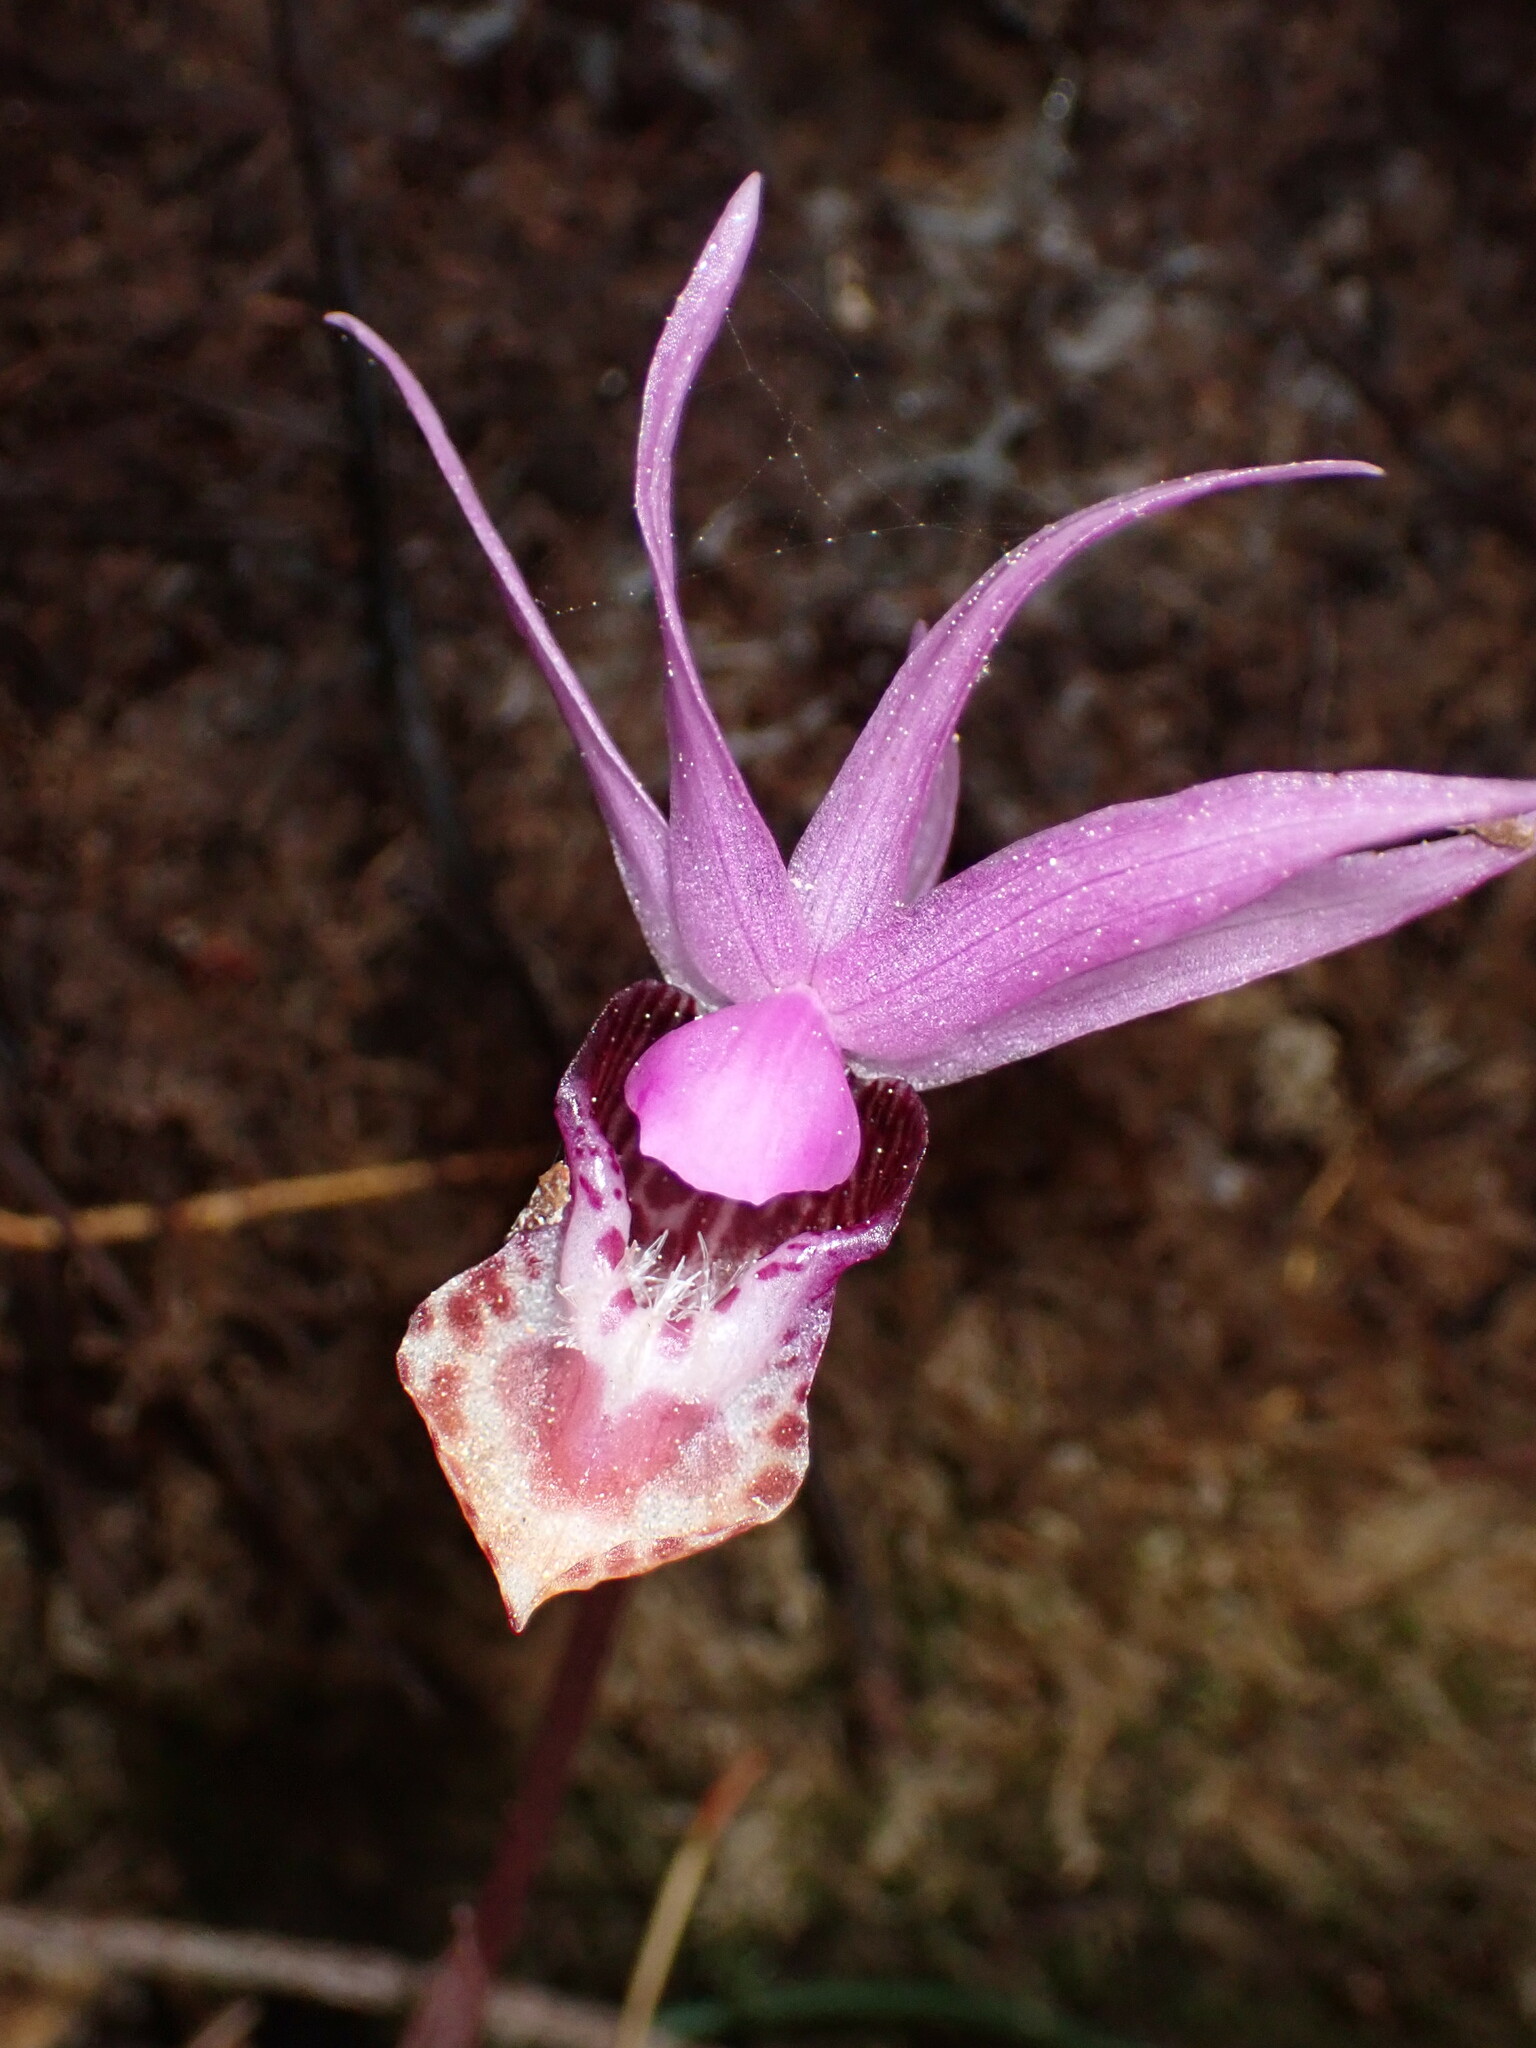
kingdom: Plantae
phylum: Tracheophyta
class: Liliopsida
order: Asparagales
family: Orchidaceae
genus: Calypso
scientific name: Calypso bulbosa
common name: Calypso
